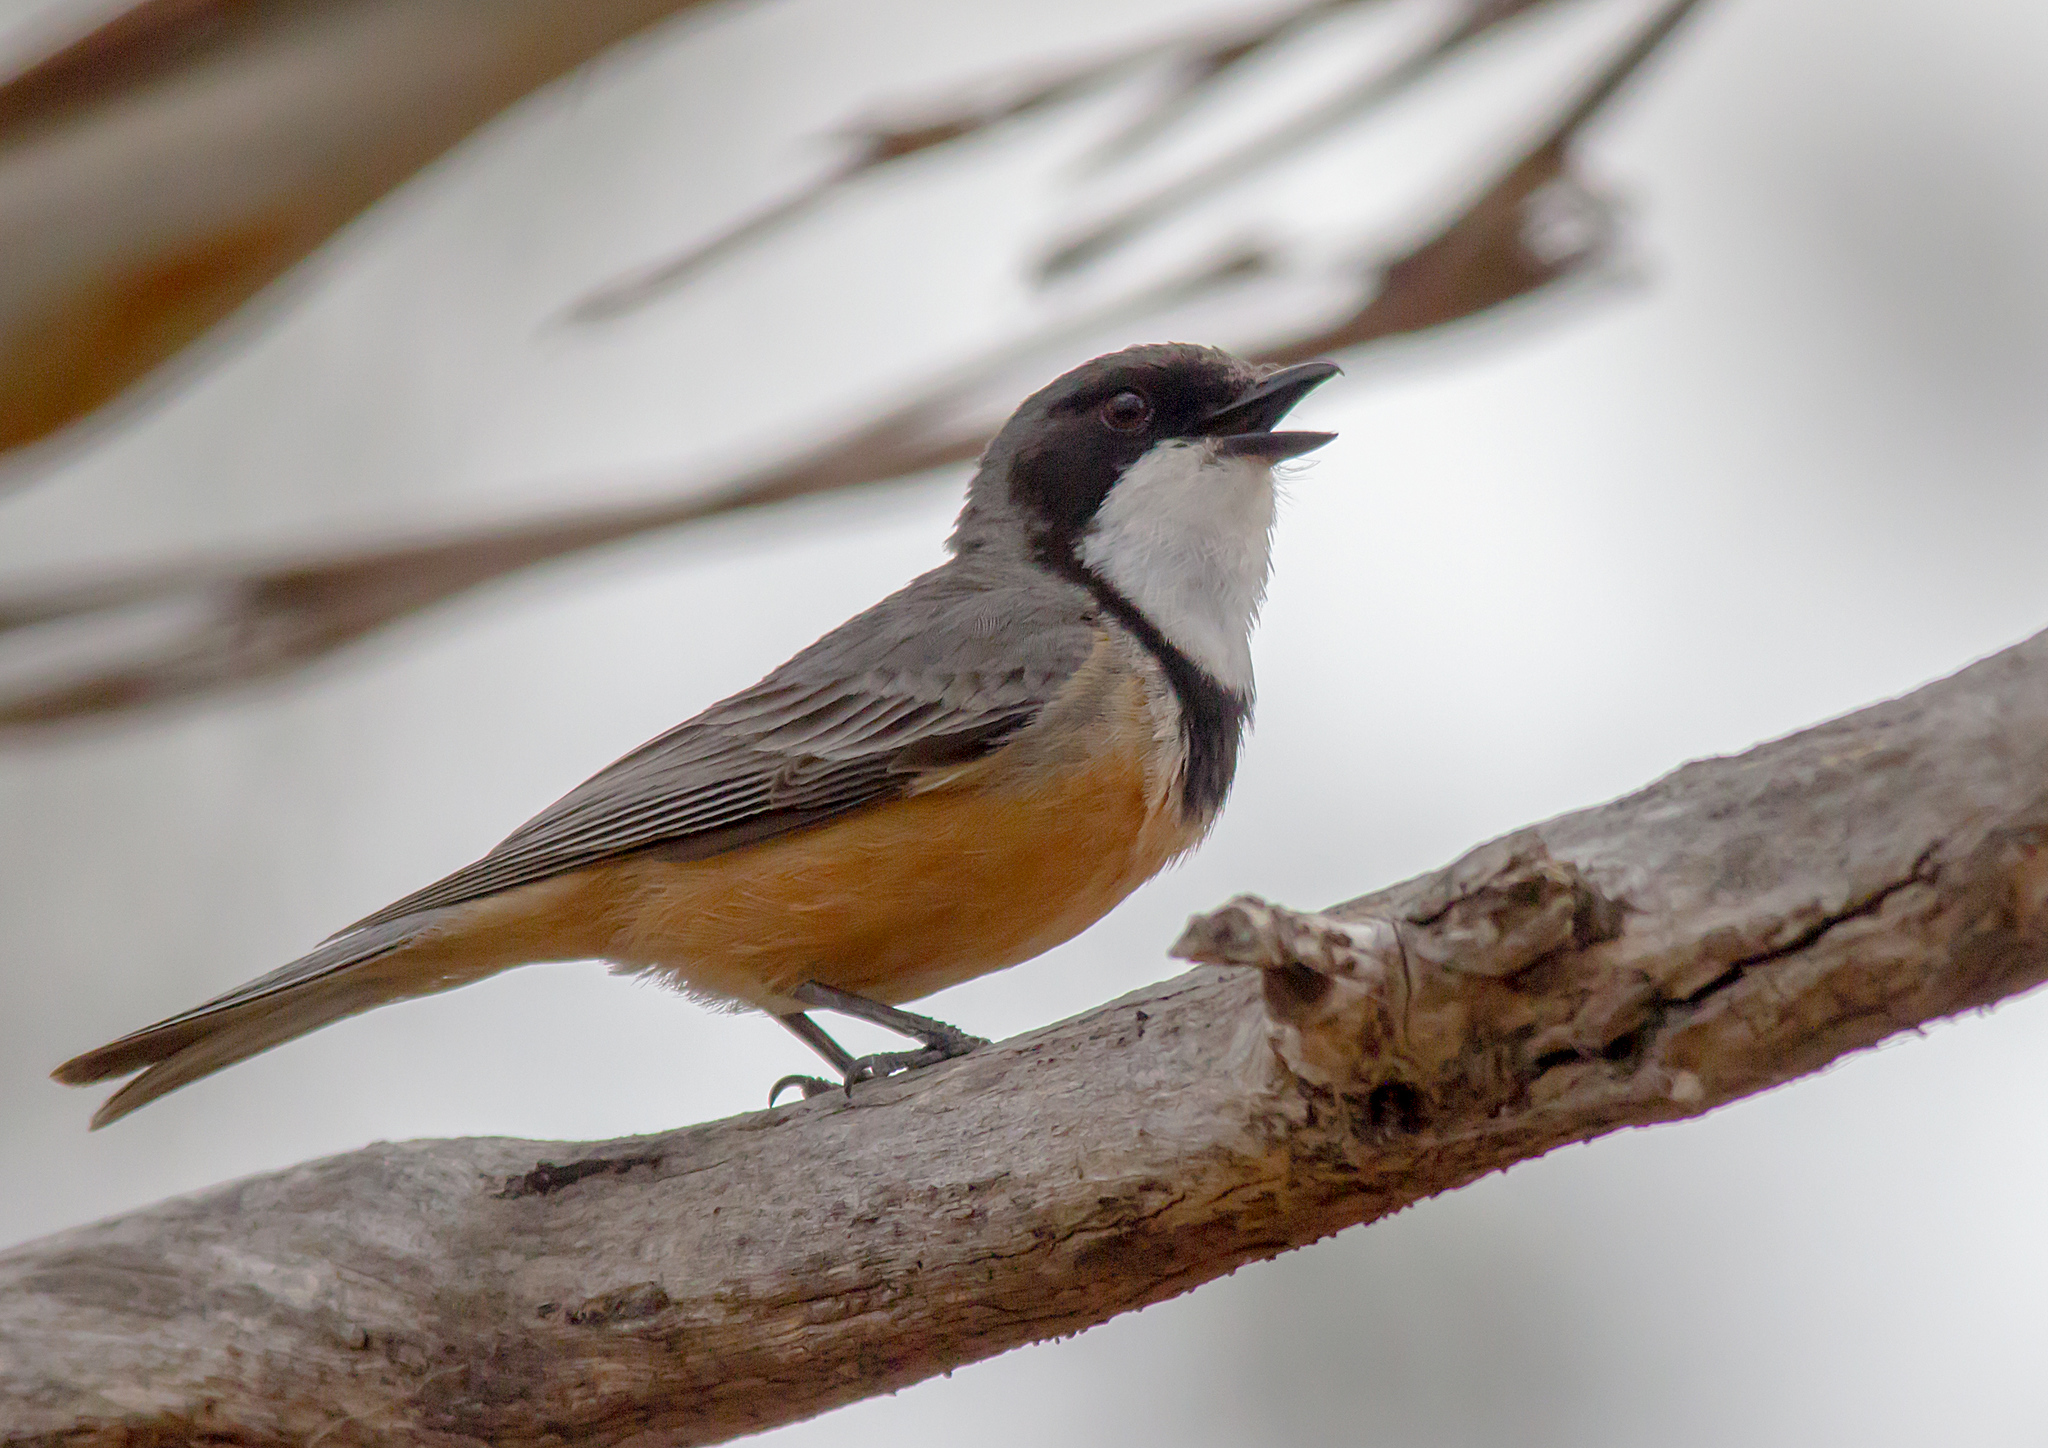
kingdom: Animalia
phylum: Chordata
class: Aves
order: Passeriformes
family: Pachycephalidae
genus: Pachycephala
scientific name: Pachycephala rufiventris
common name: Rufous whistler
